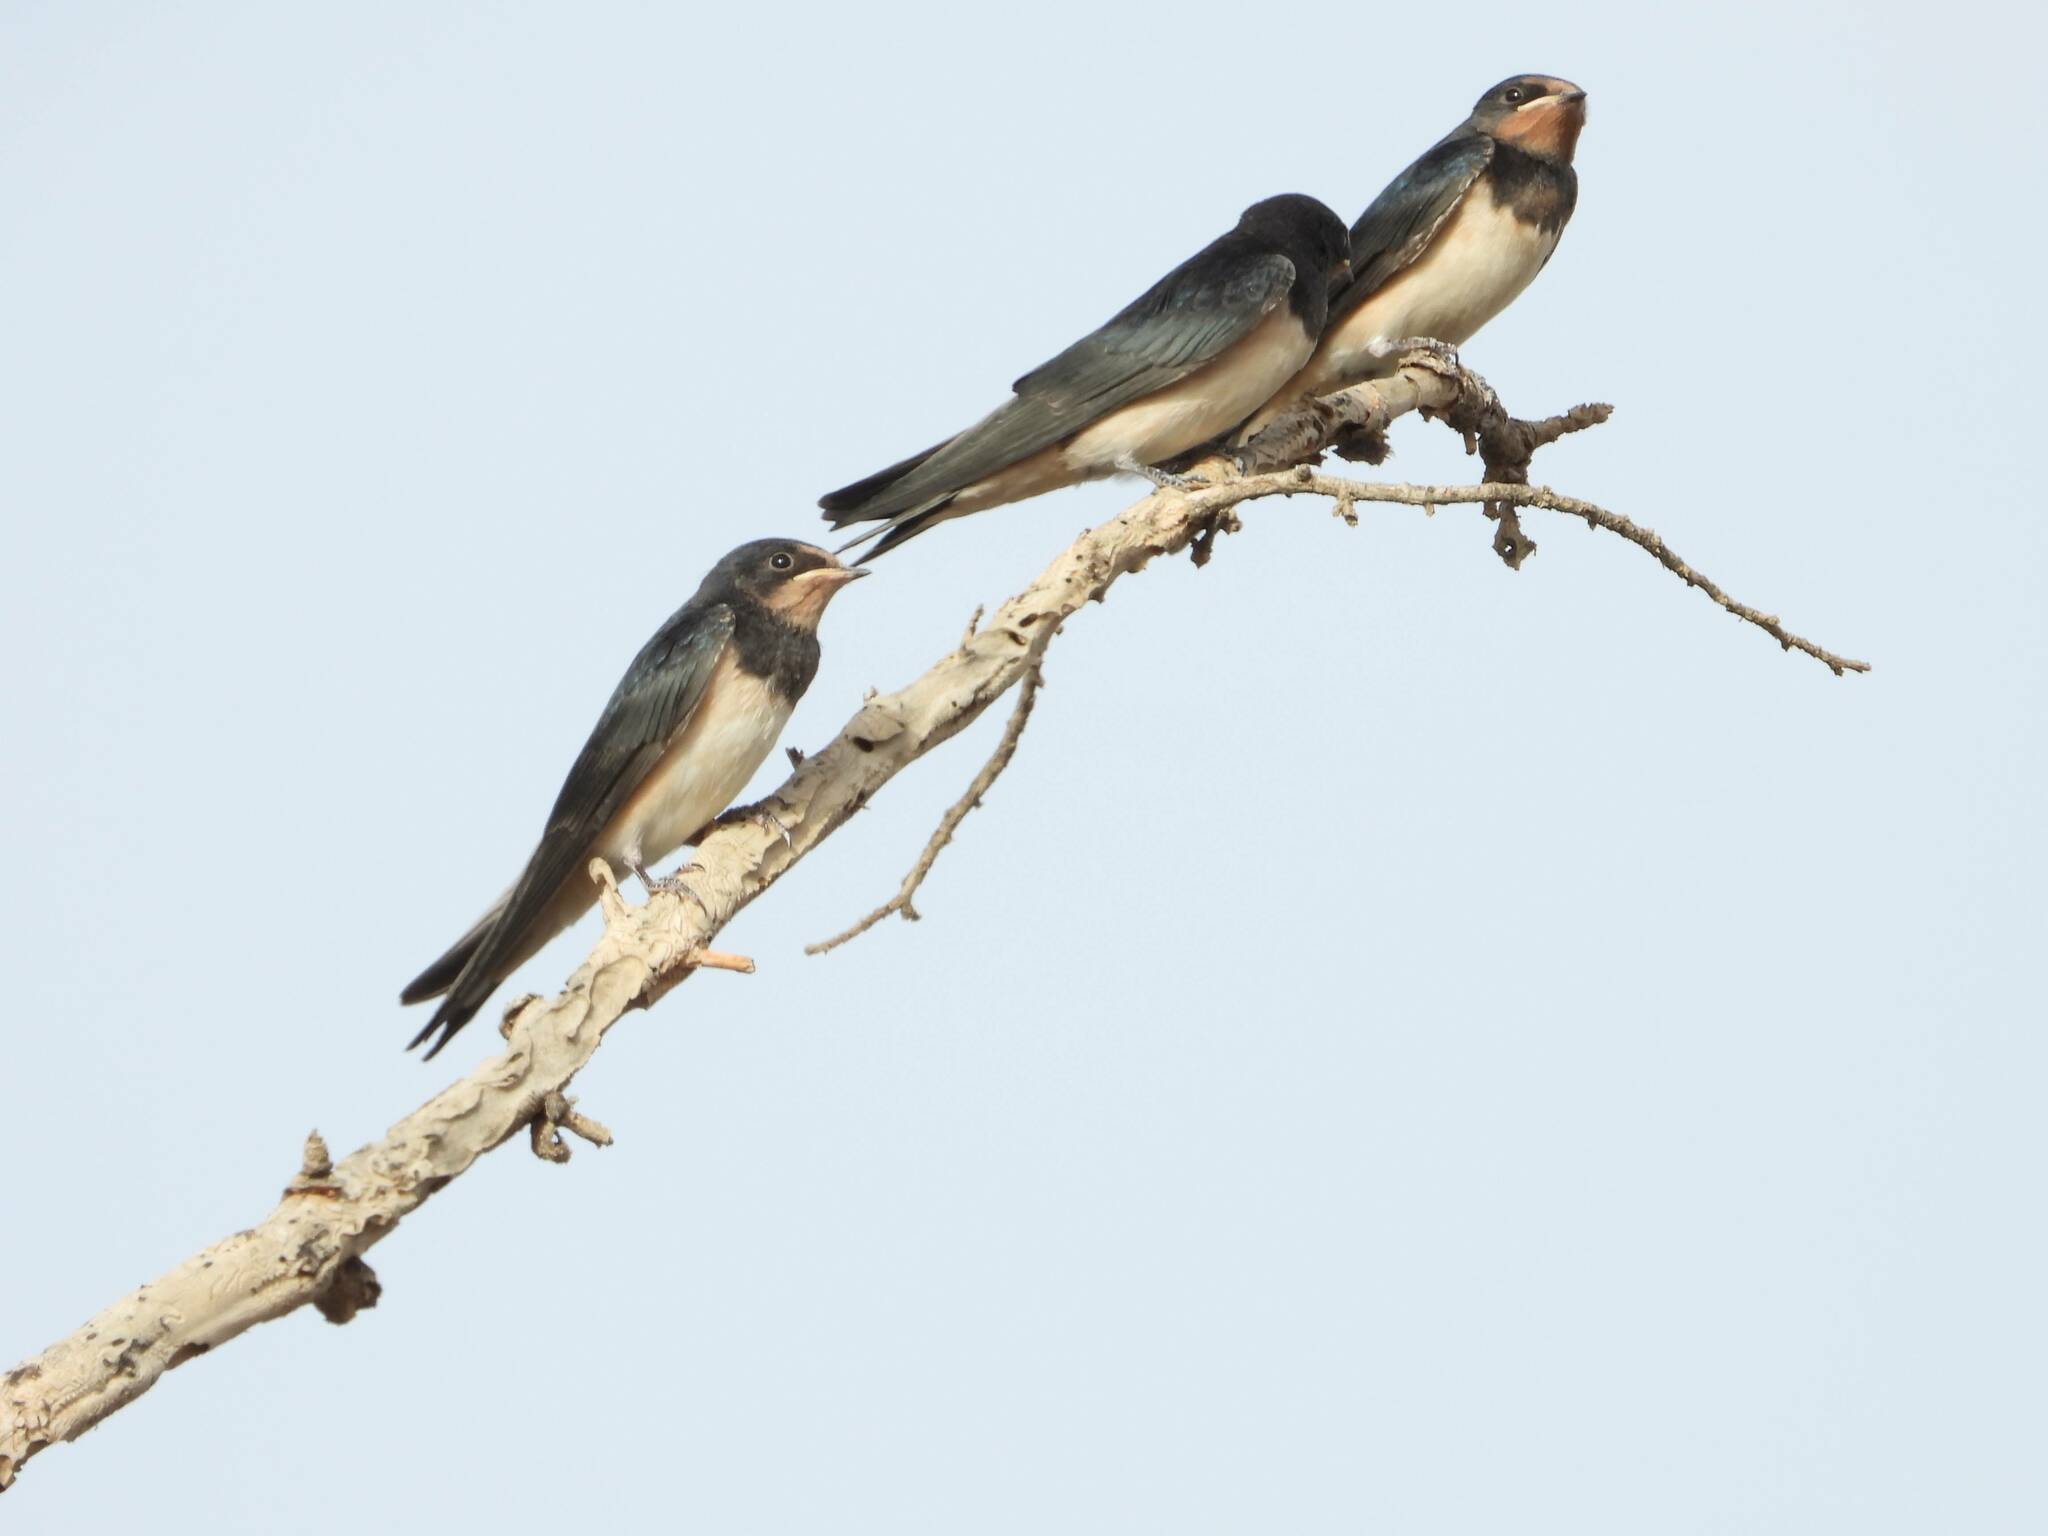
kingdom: Animalia
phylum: Chordata
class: Aves
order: Passeriformes
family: Hirundinidae
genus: Hirundo
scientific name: Hirundo rustica
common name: Barn swallow
